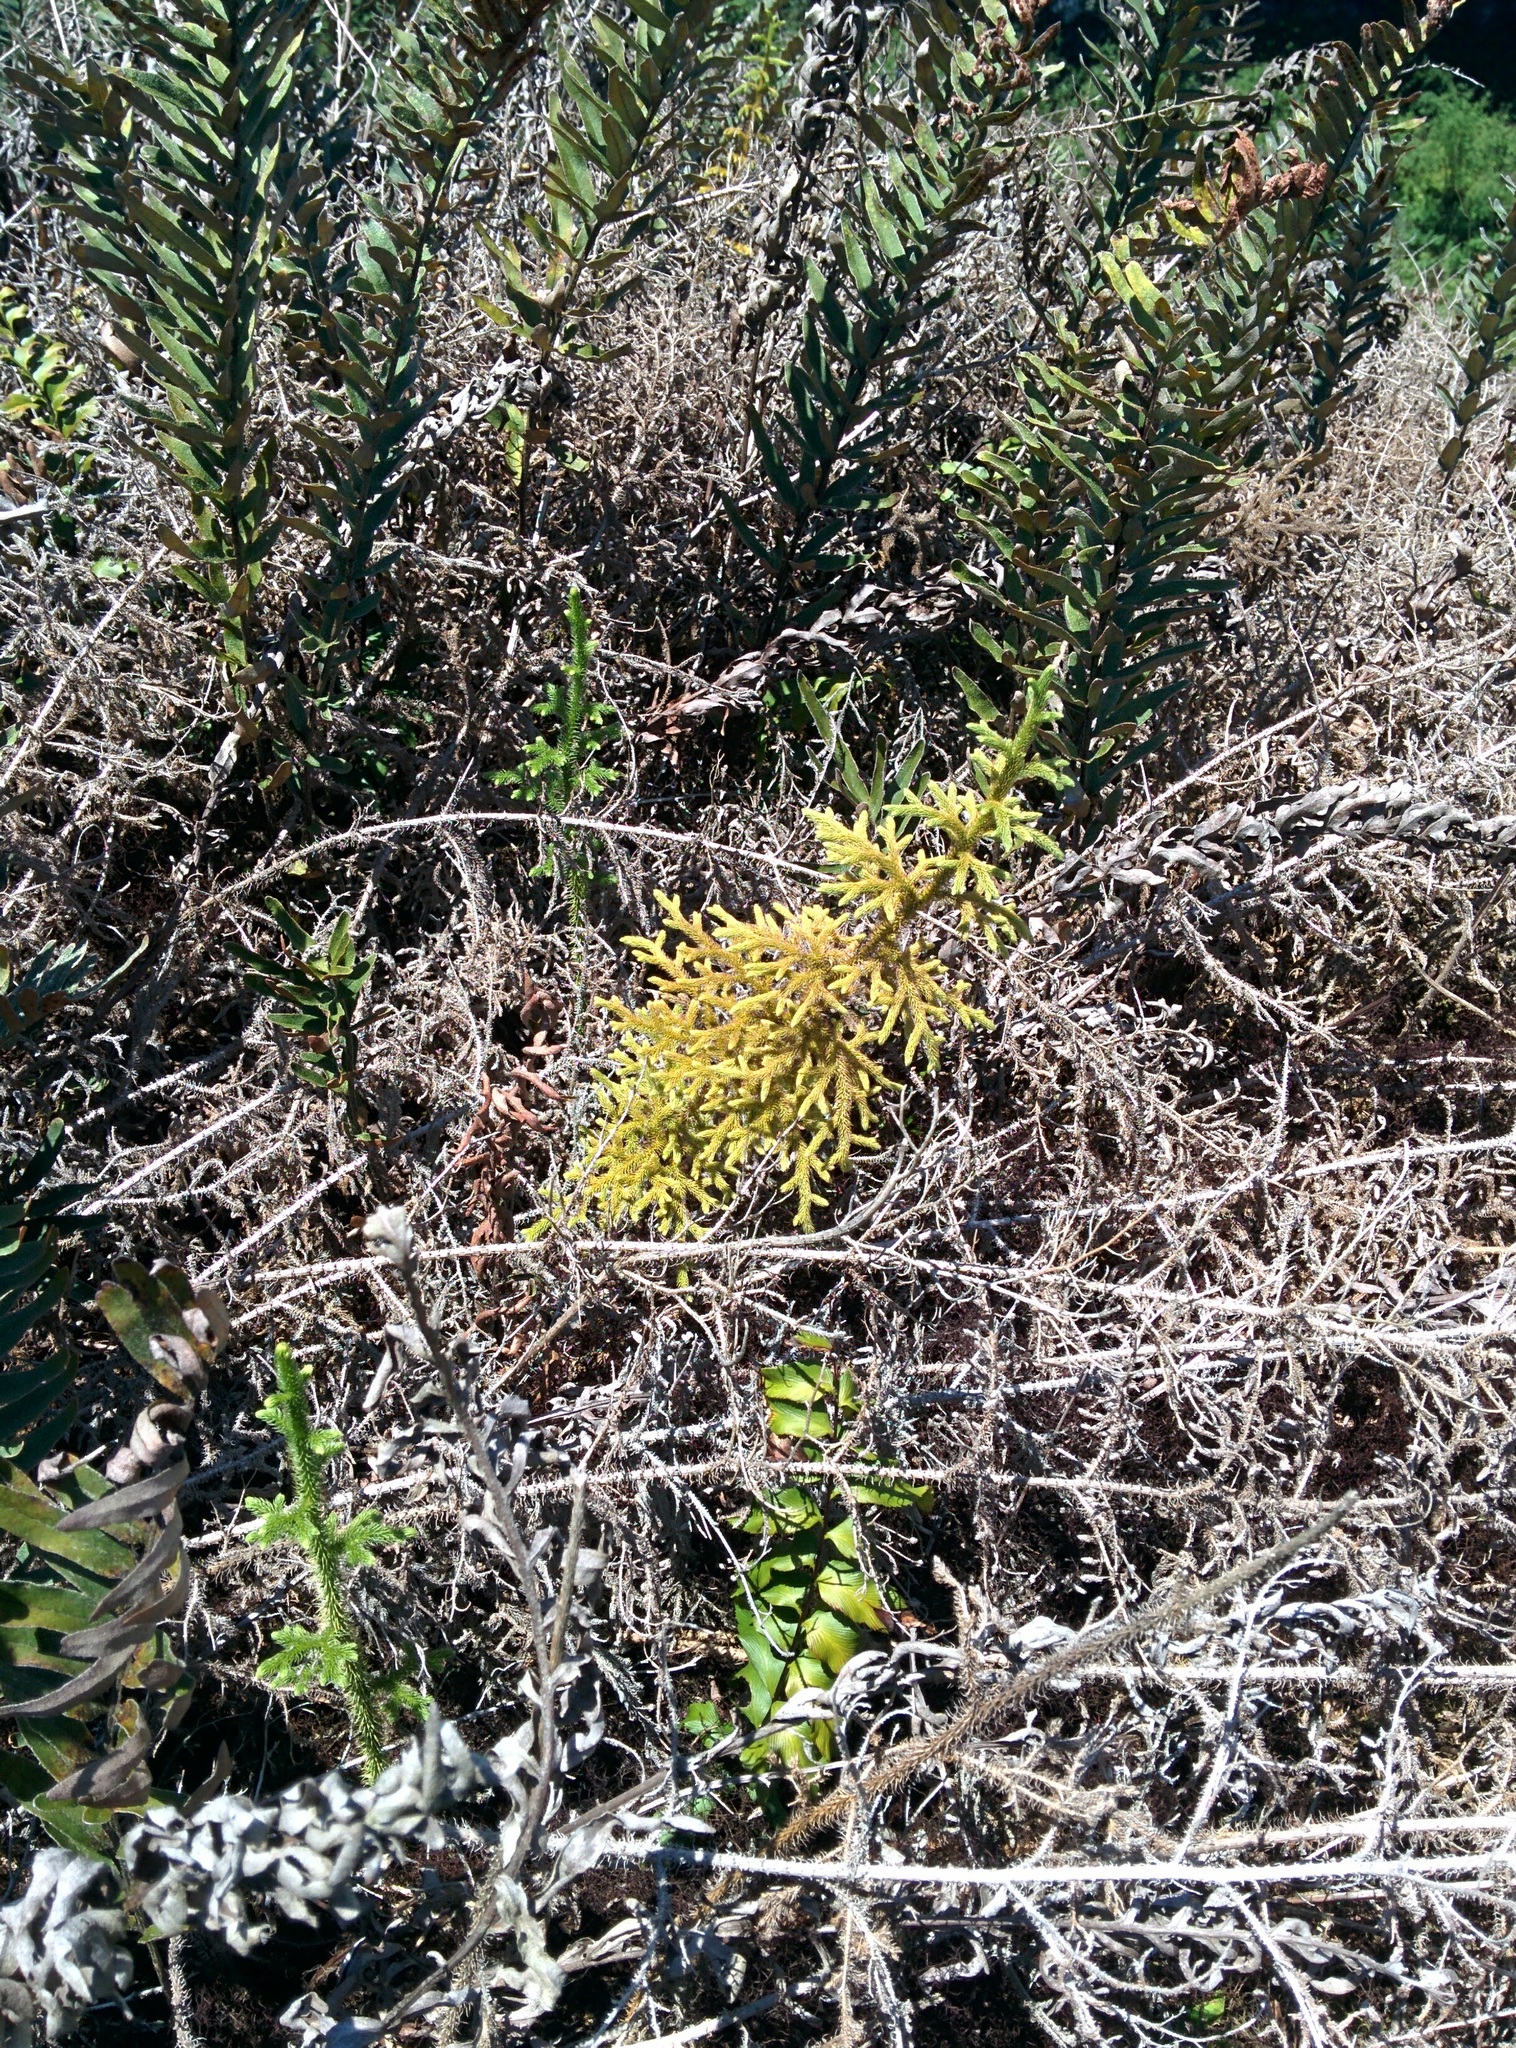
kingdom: Plantae
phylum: Tracheophyta
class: Lycopodiopsida
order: Lycopodiales
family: Lycopodiaceae
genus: Palhinhaea
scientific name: Palhinhaea cernua
